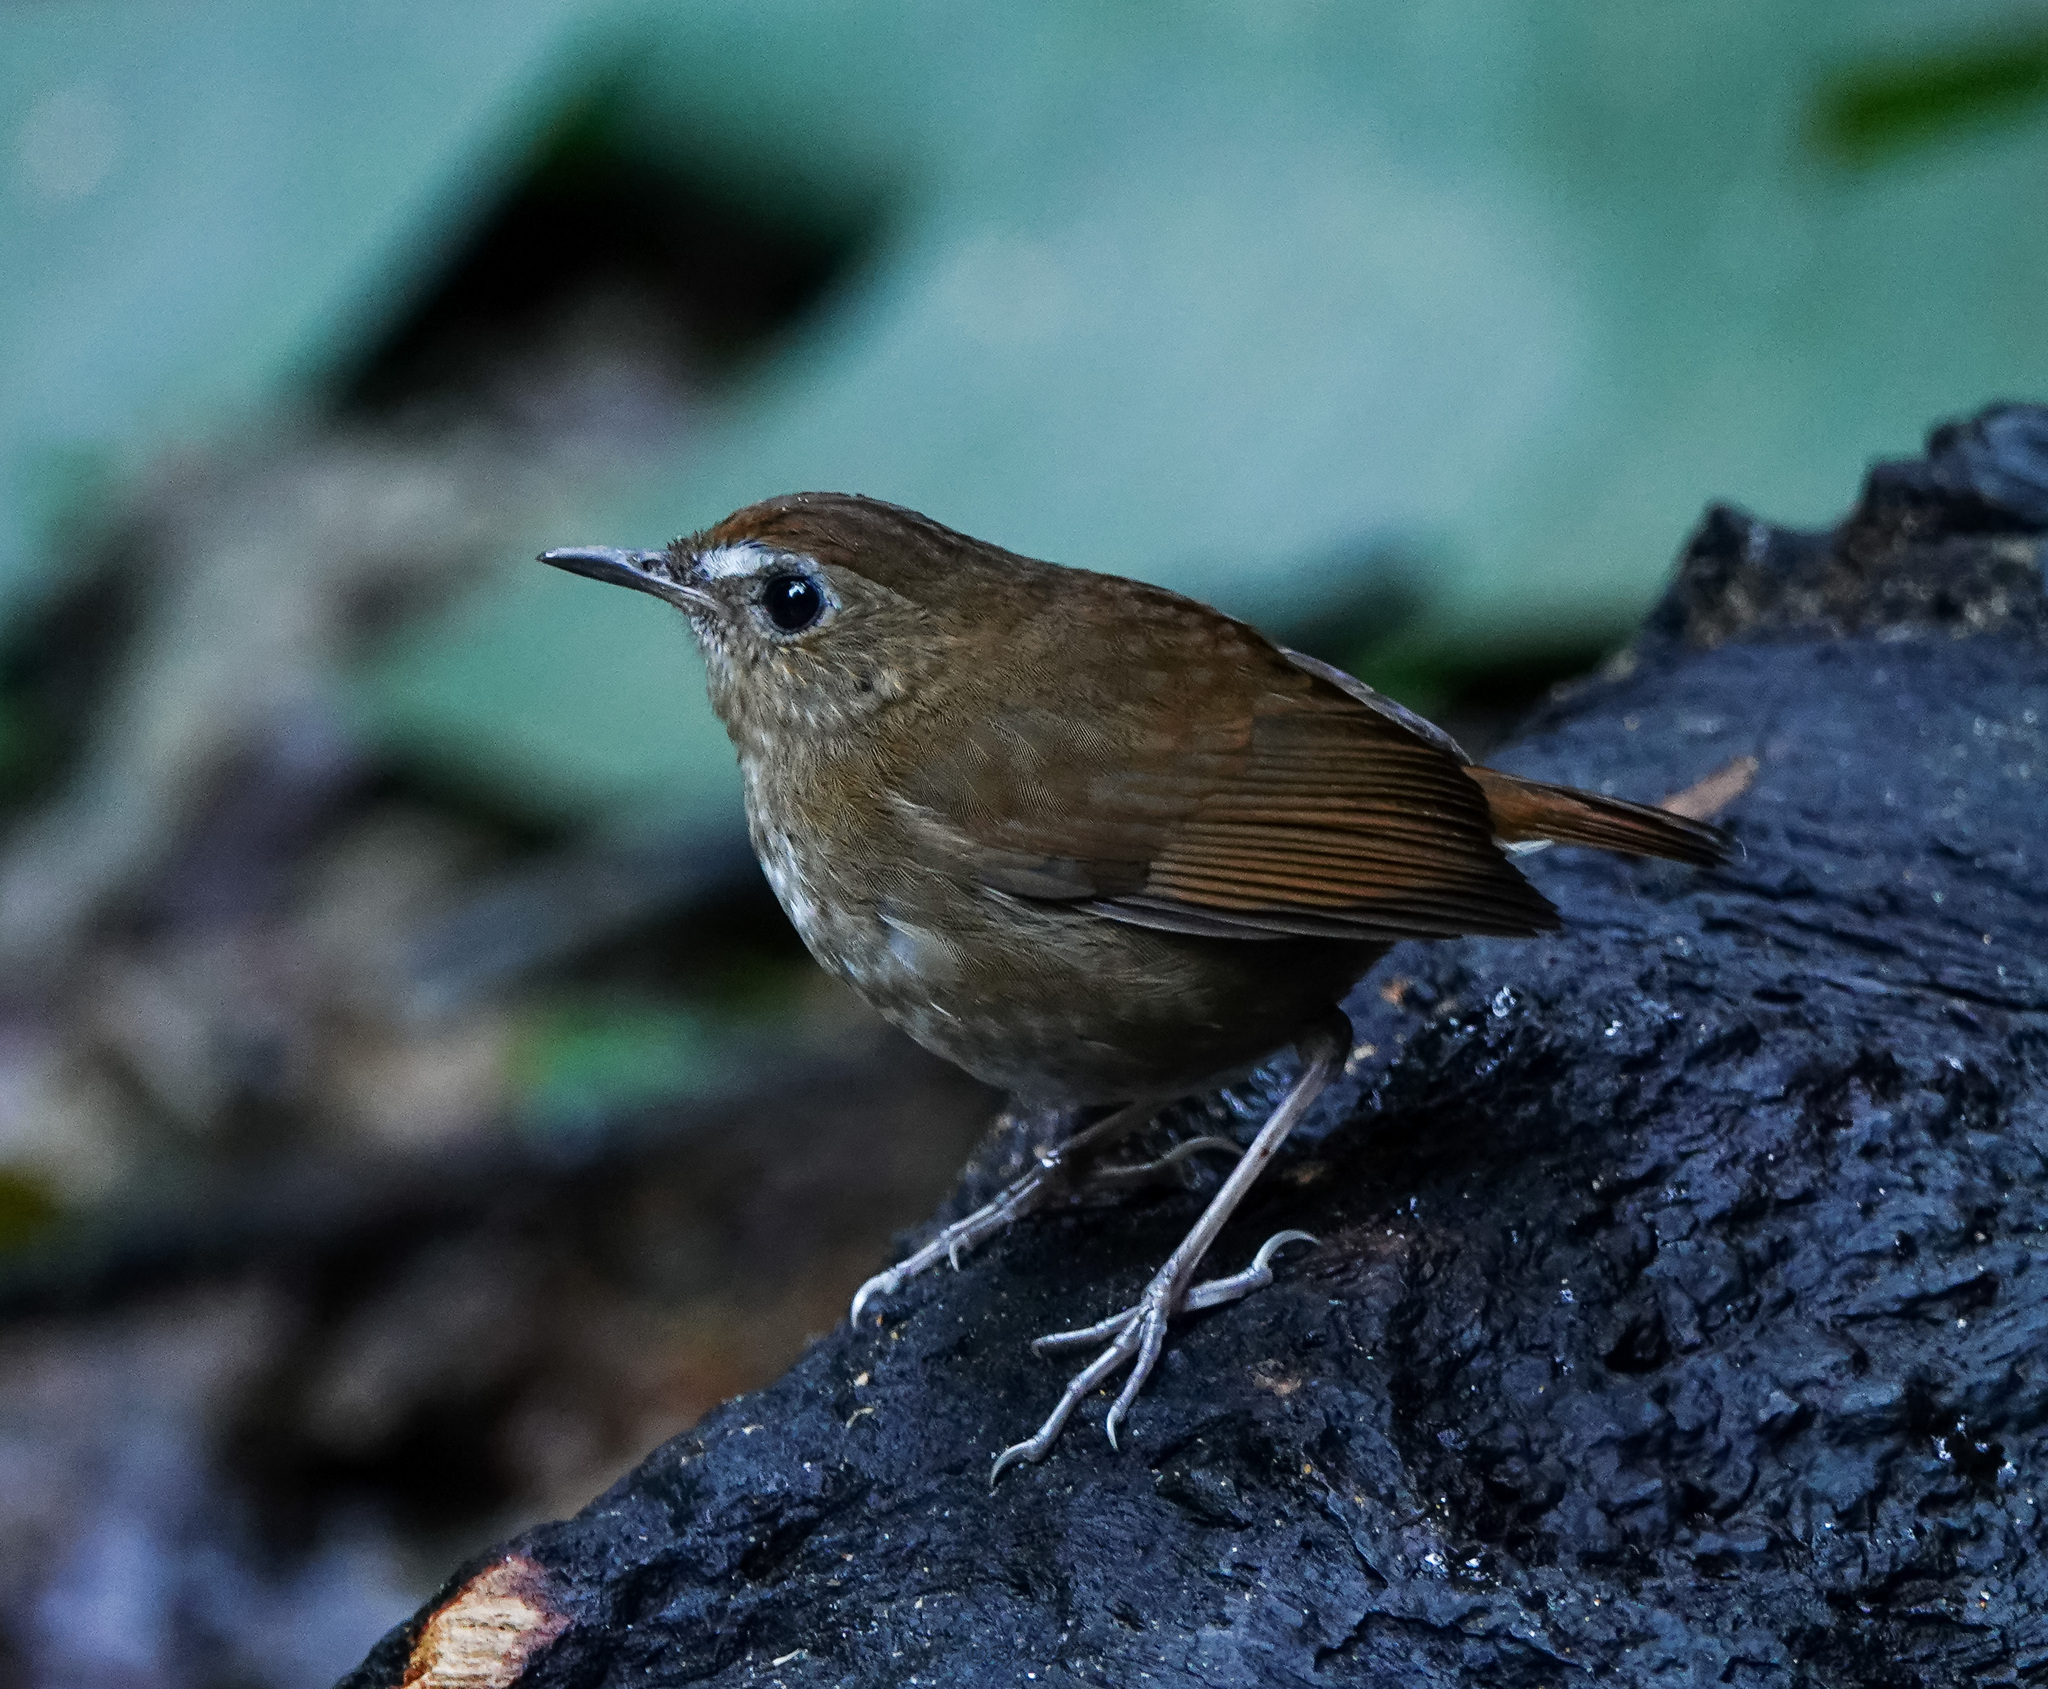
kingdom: Animalia
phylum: Chordata
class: Aves
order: Passeriformes
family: Muscicapidae
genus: Brachypteryx
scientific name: Brachypteryx leucophris
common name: Lesser shortwing
